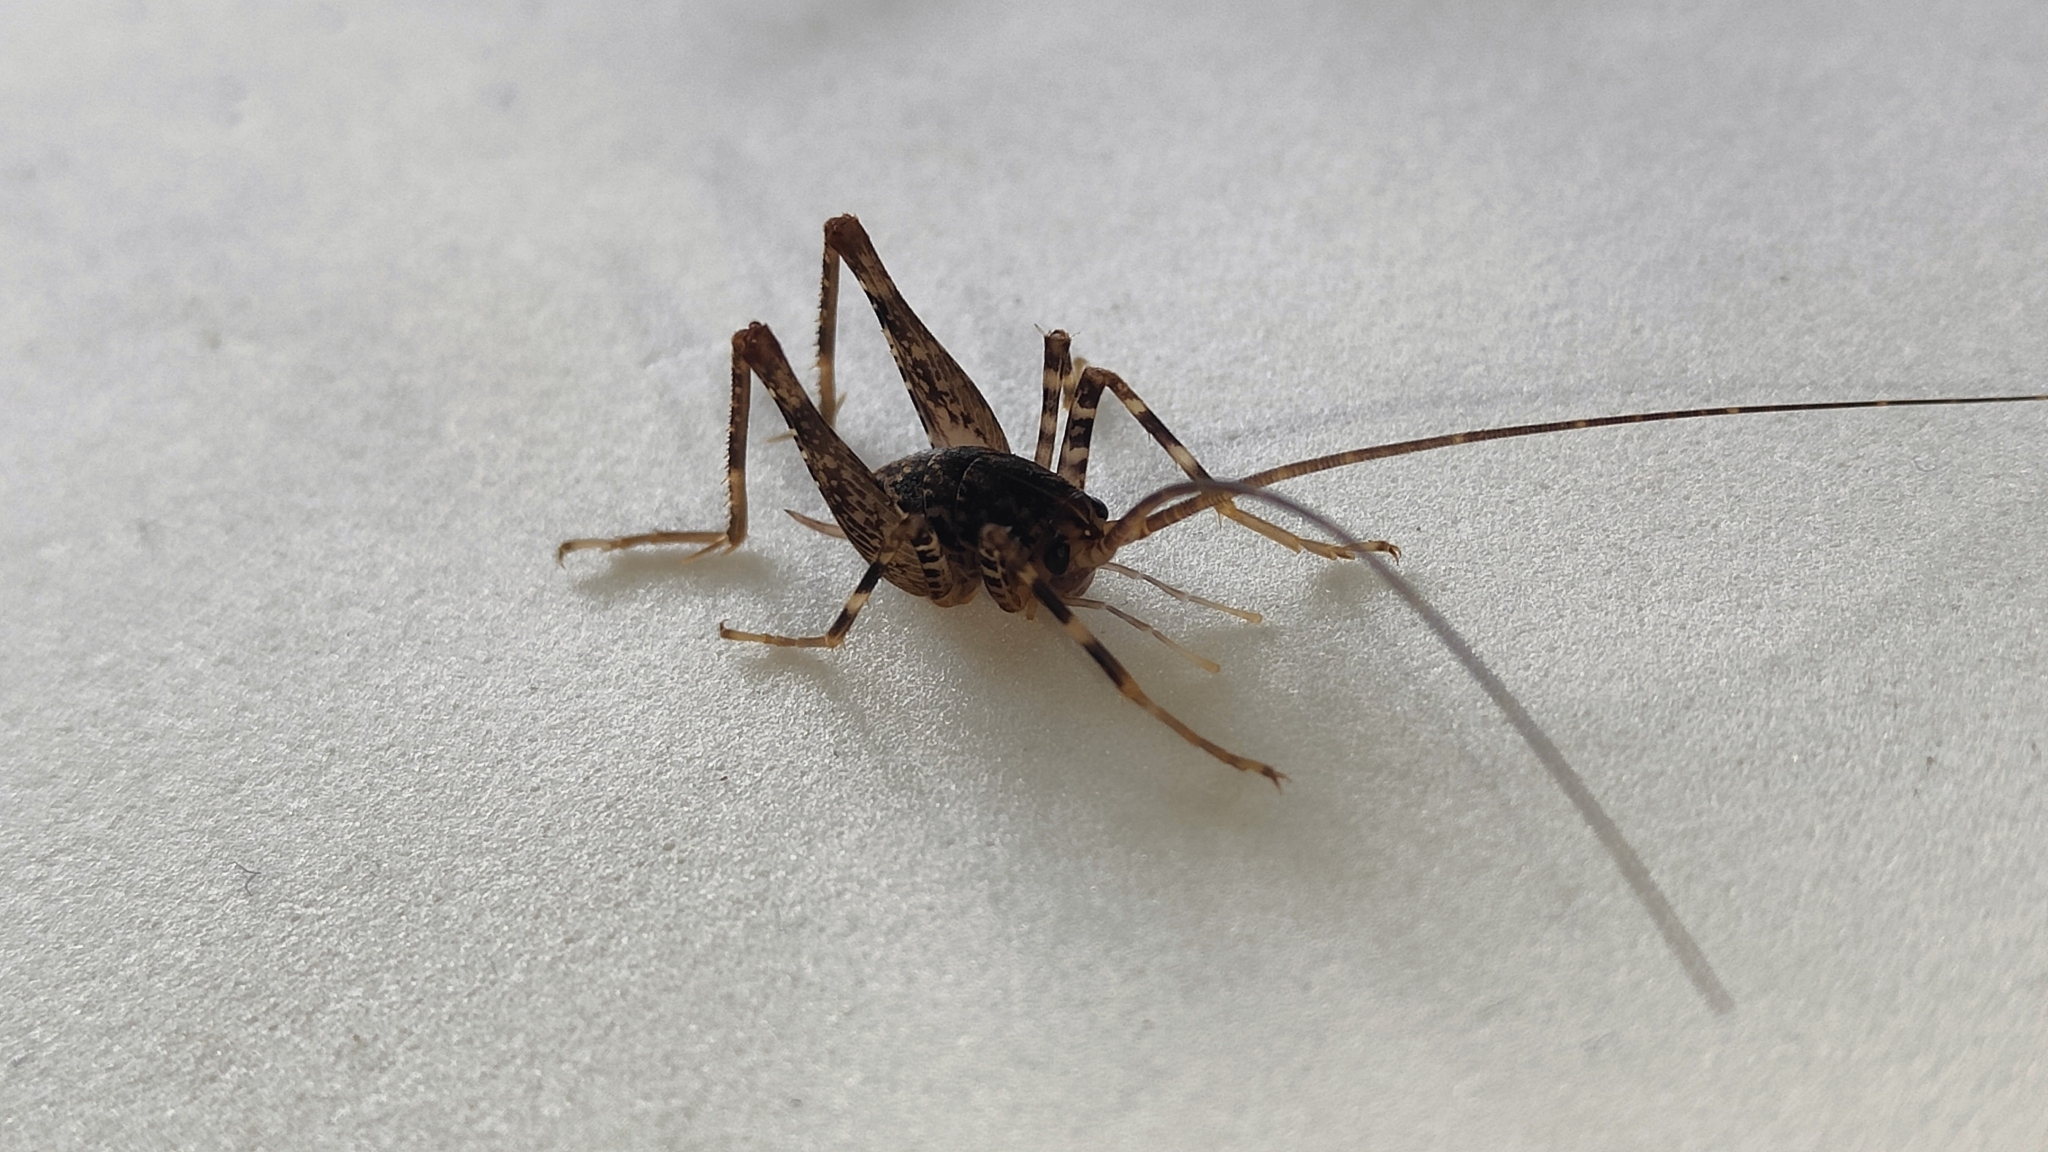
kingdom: Animalia
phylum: Arthropoda
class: Insecta
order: Orthoptera
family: Rhaphidophoridae
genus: Pleioplectron
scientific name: Pleioplectron simplex
